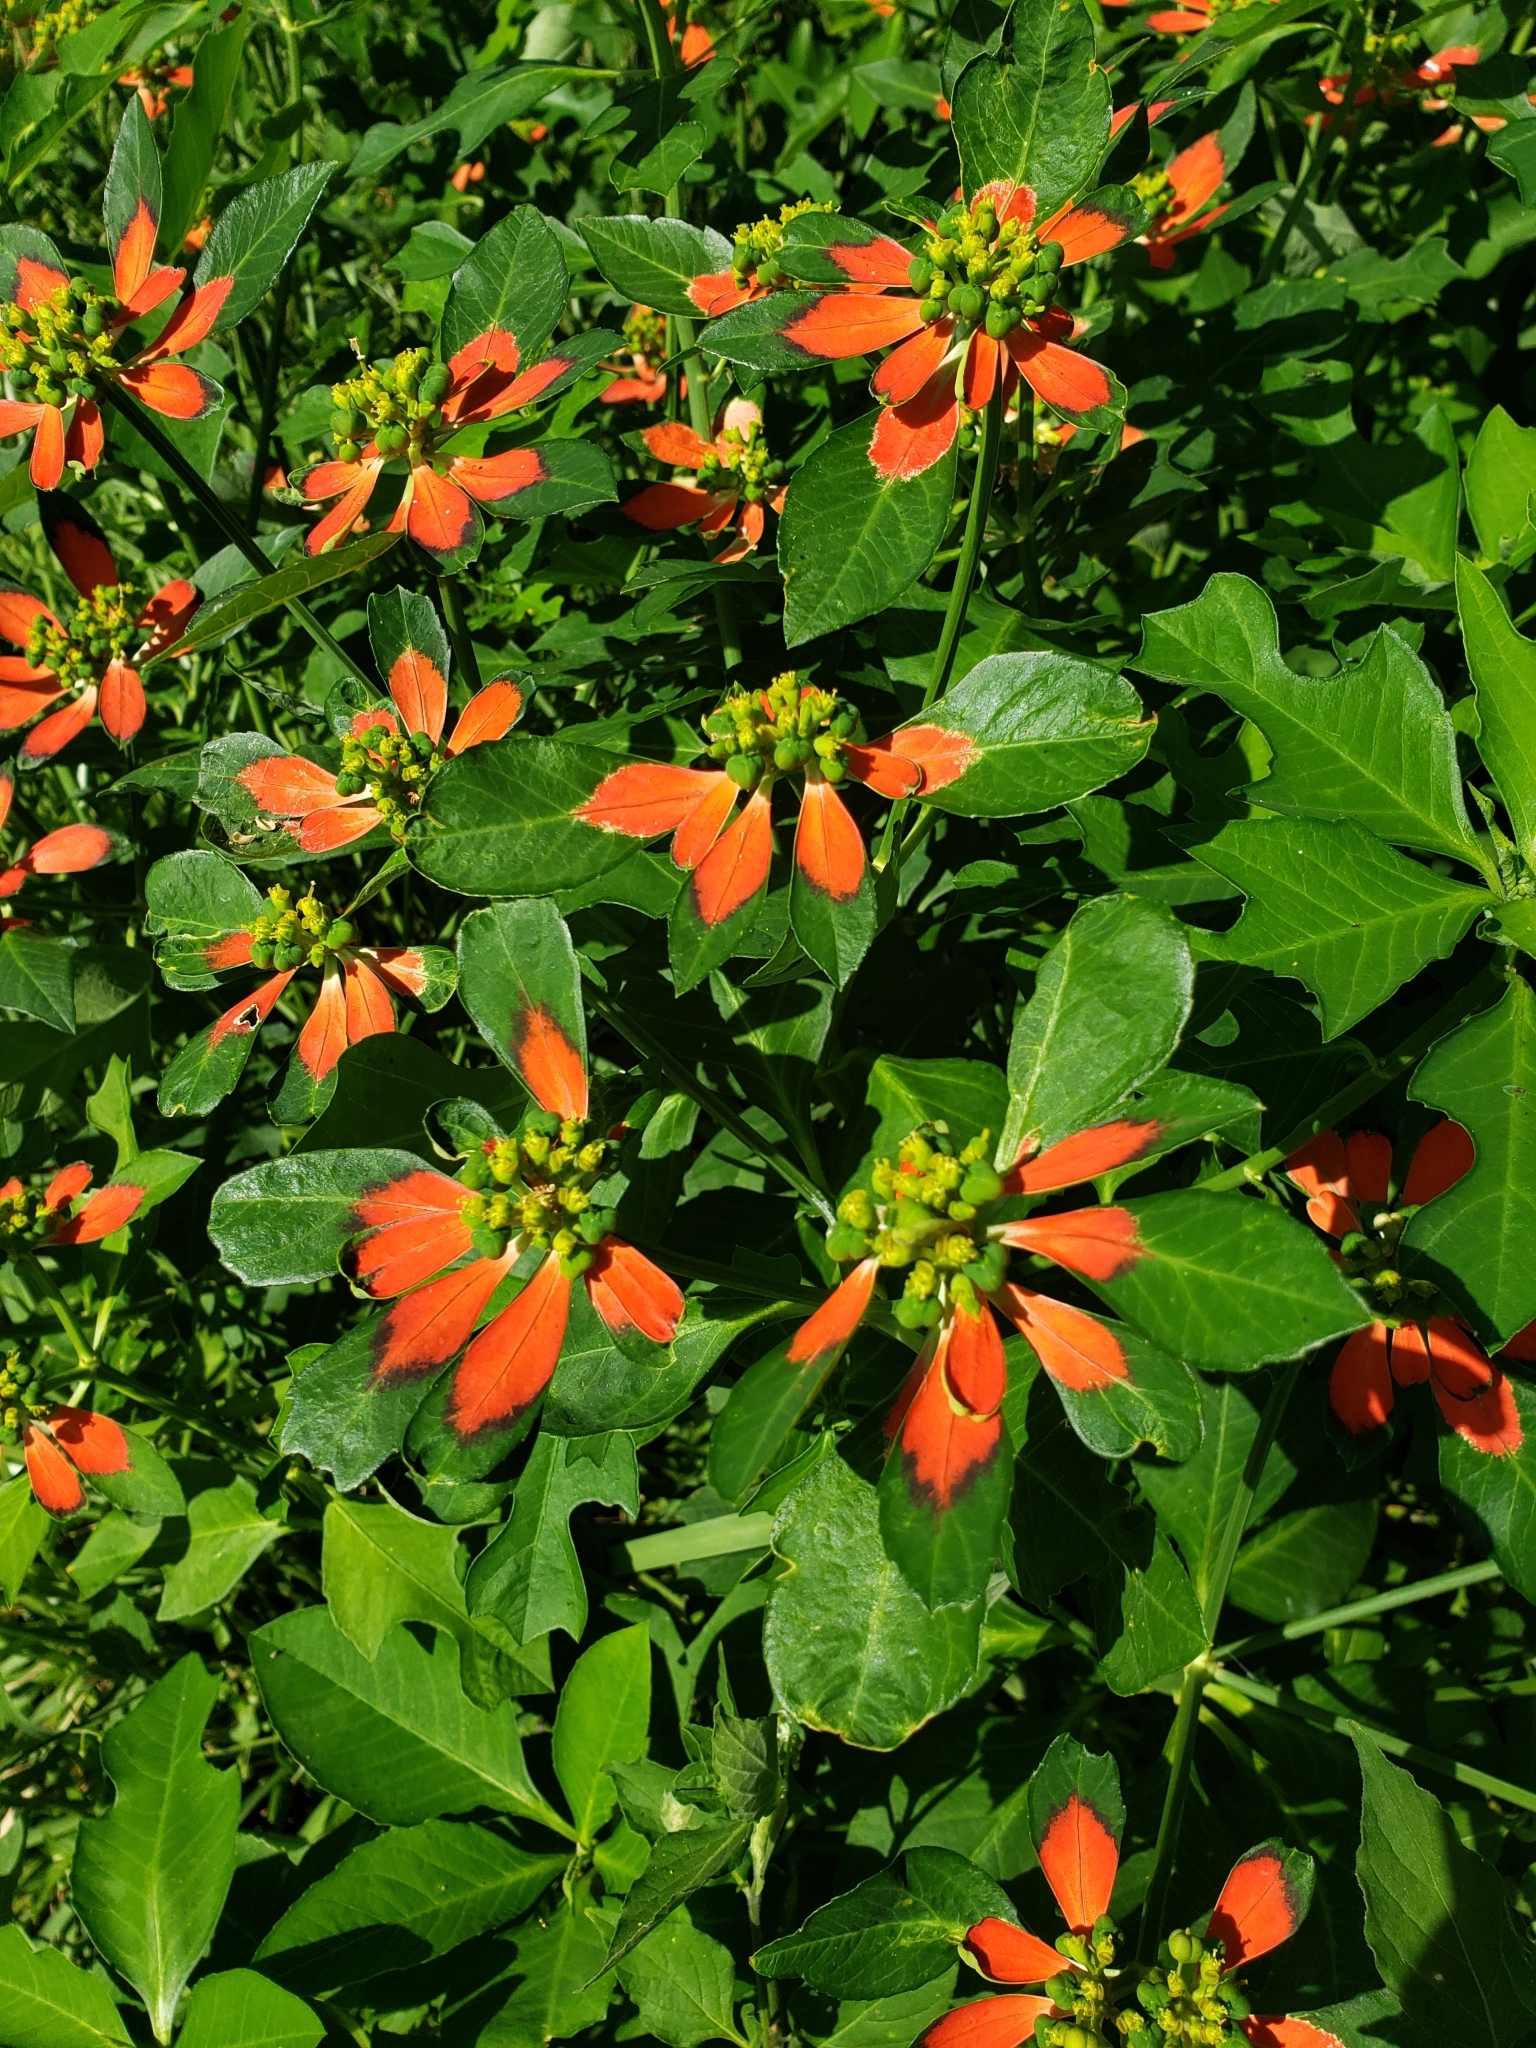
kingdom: Plantae
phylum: Tracheophyta
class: Magnoliopsida
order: Malpighiales
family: Euphorbiaceae
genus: Euphorbia
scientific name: Euphorbia heterophylla
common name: Mexican fireplant
